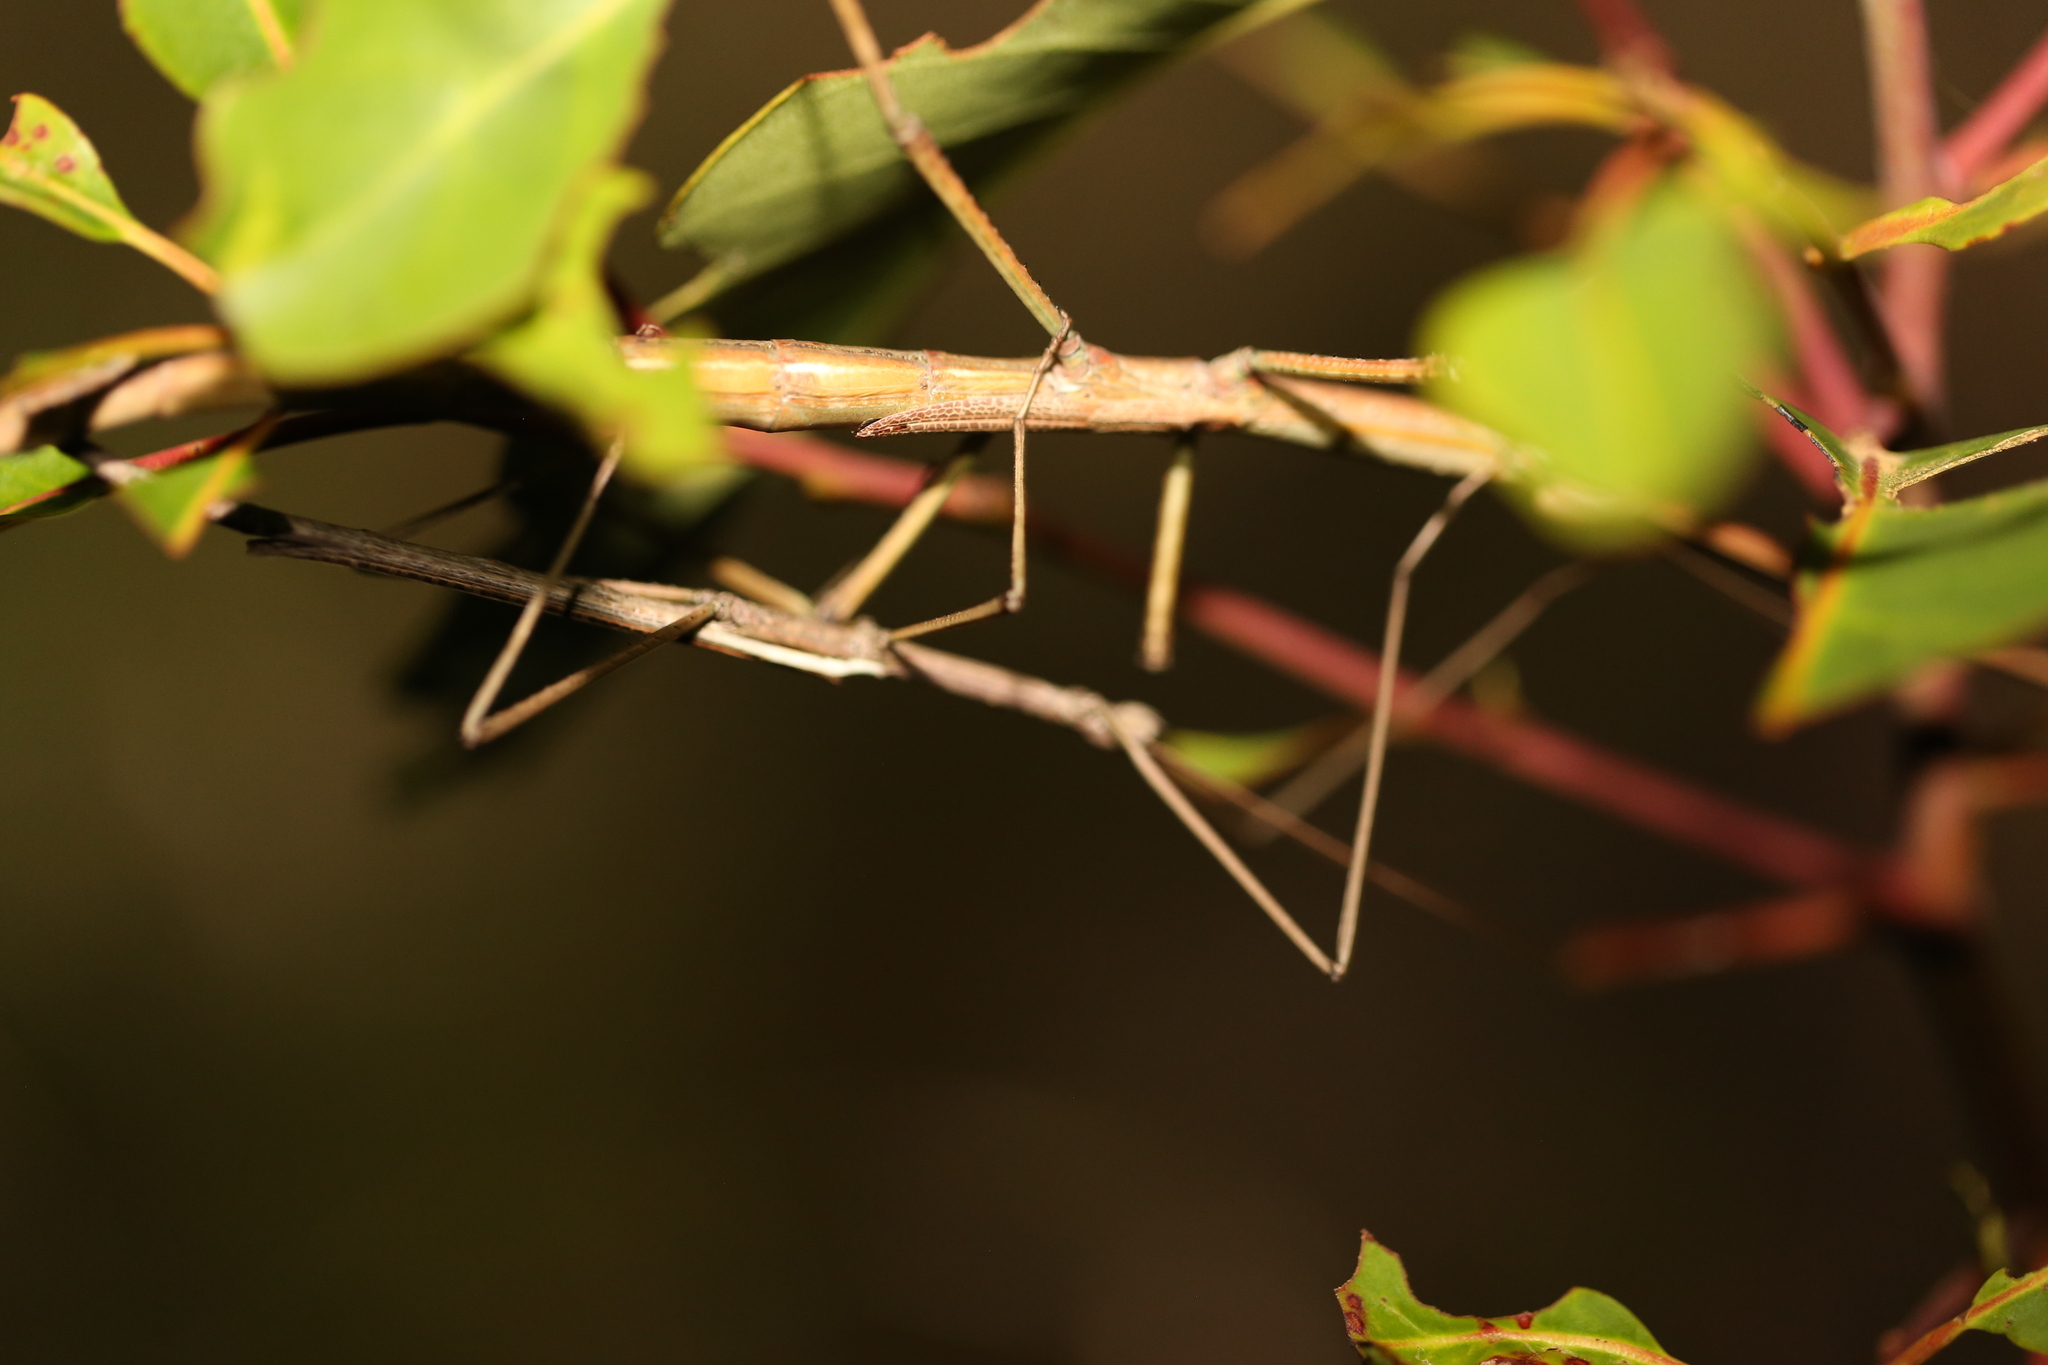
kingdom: Animalia
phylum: Arthropoda
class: Insecta
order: Phasmida
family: Phasmatidae
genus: Anchiale
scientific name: Anchiale austrotessulata
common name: Tessellated stick-insect
